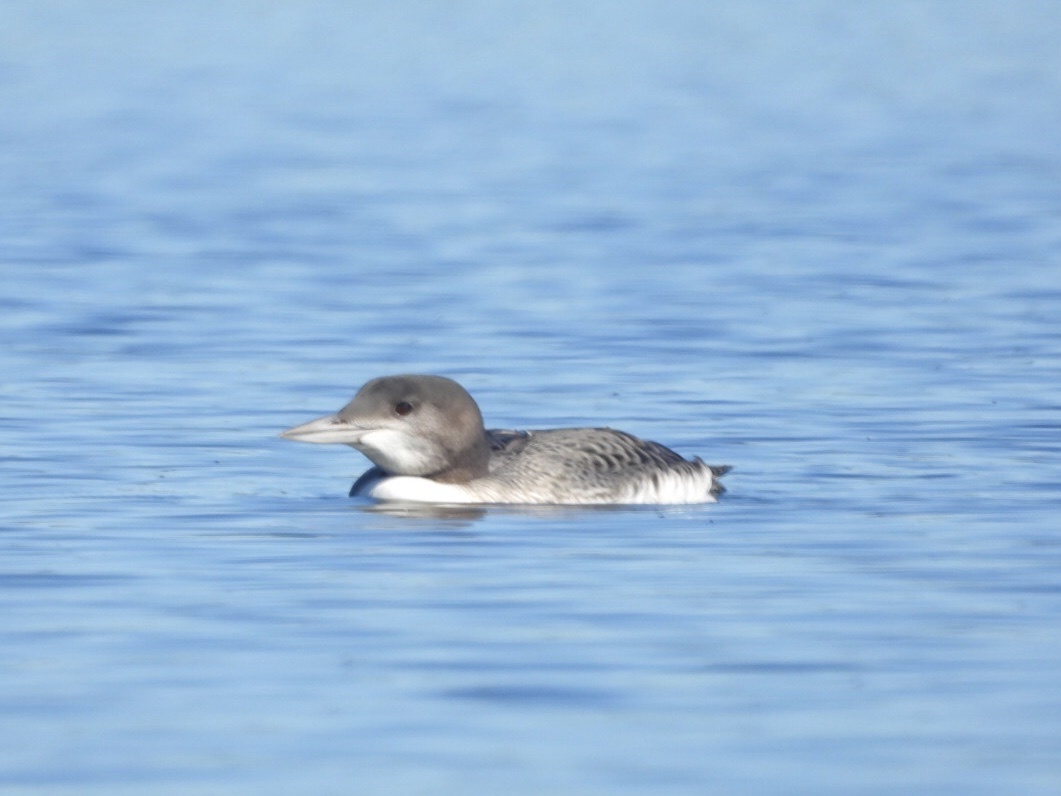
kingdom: Animalia
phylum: Chordata
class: Aves
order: Gaviiformes
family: Gaviidae
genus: Gavia
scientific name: Gavia immer
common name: Common loon
